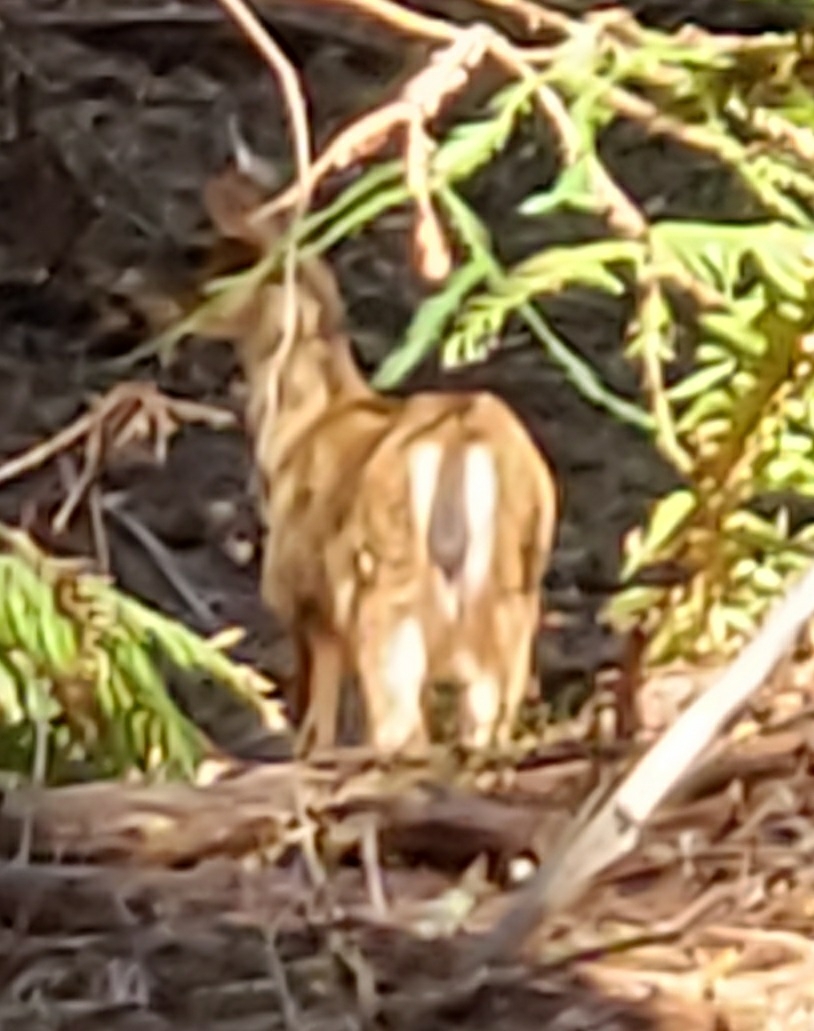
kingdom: Animalia
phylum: Chordata
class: Mammalia
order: Artiodactyla
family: Cervidae
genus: Odocoileus
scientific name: Odocoileus hemionus
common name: Mule deer
